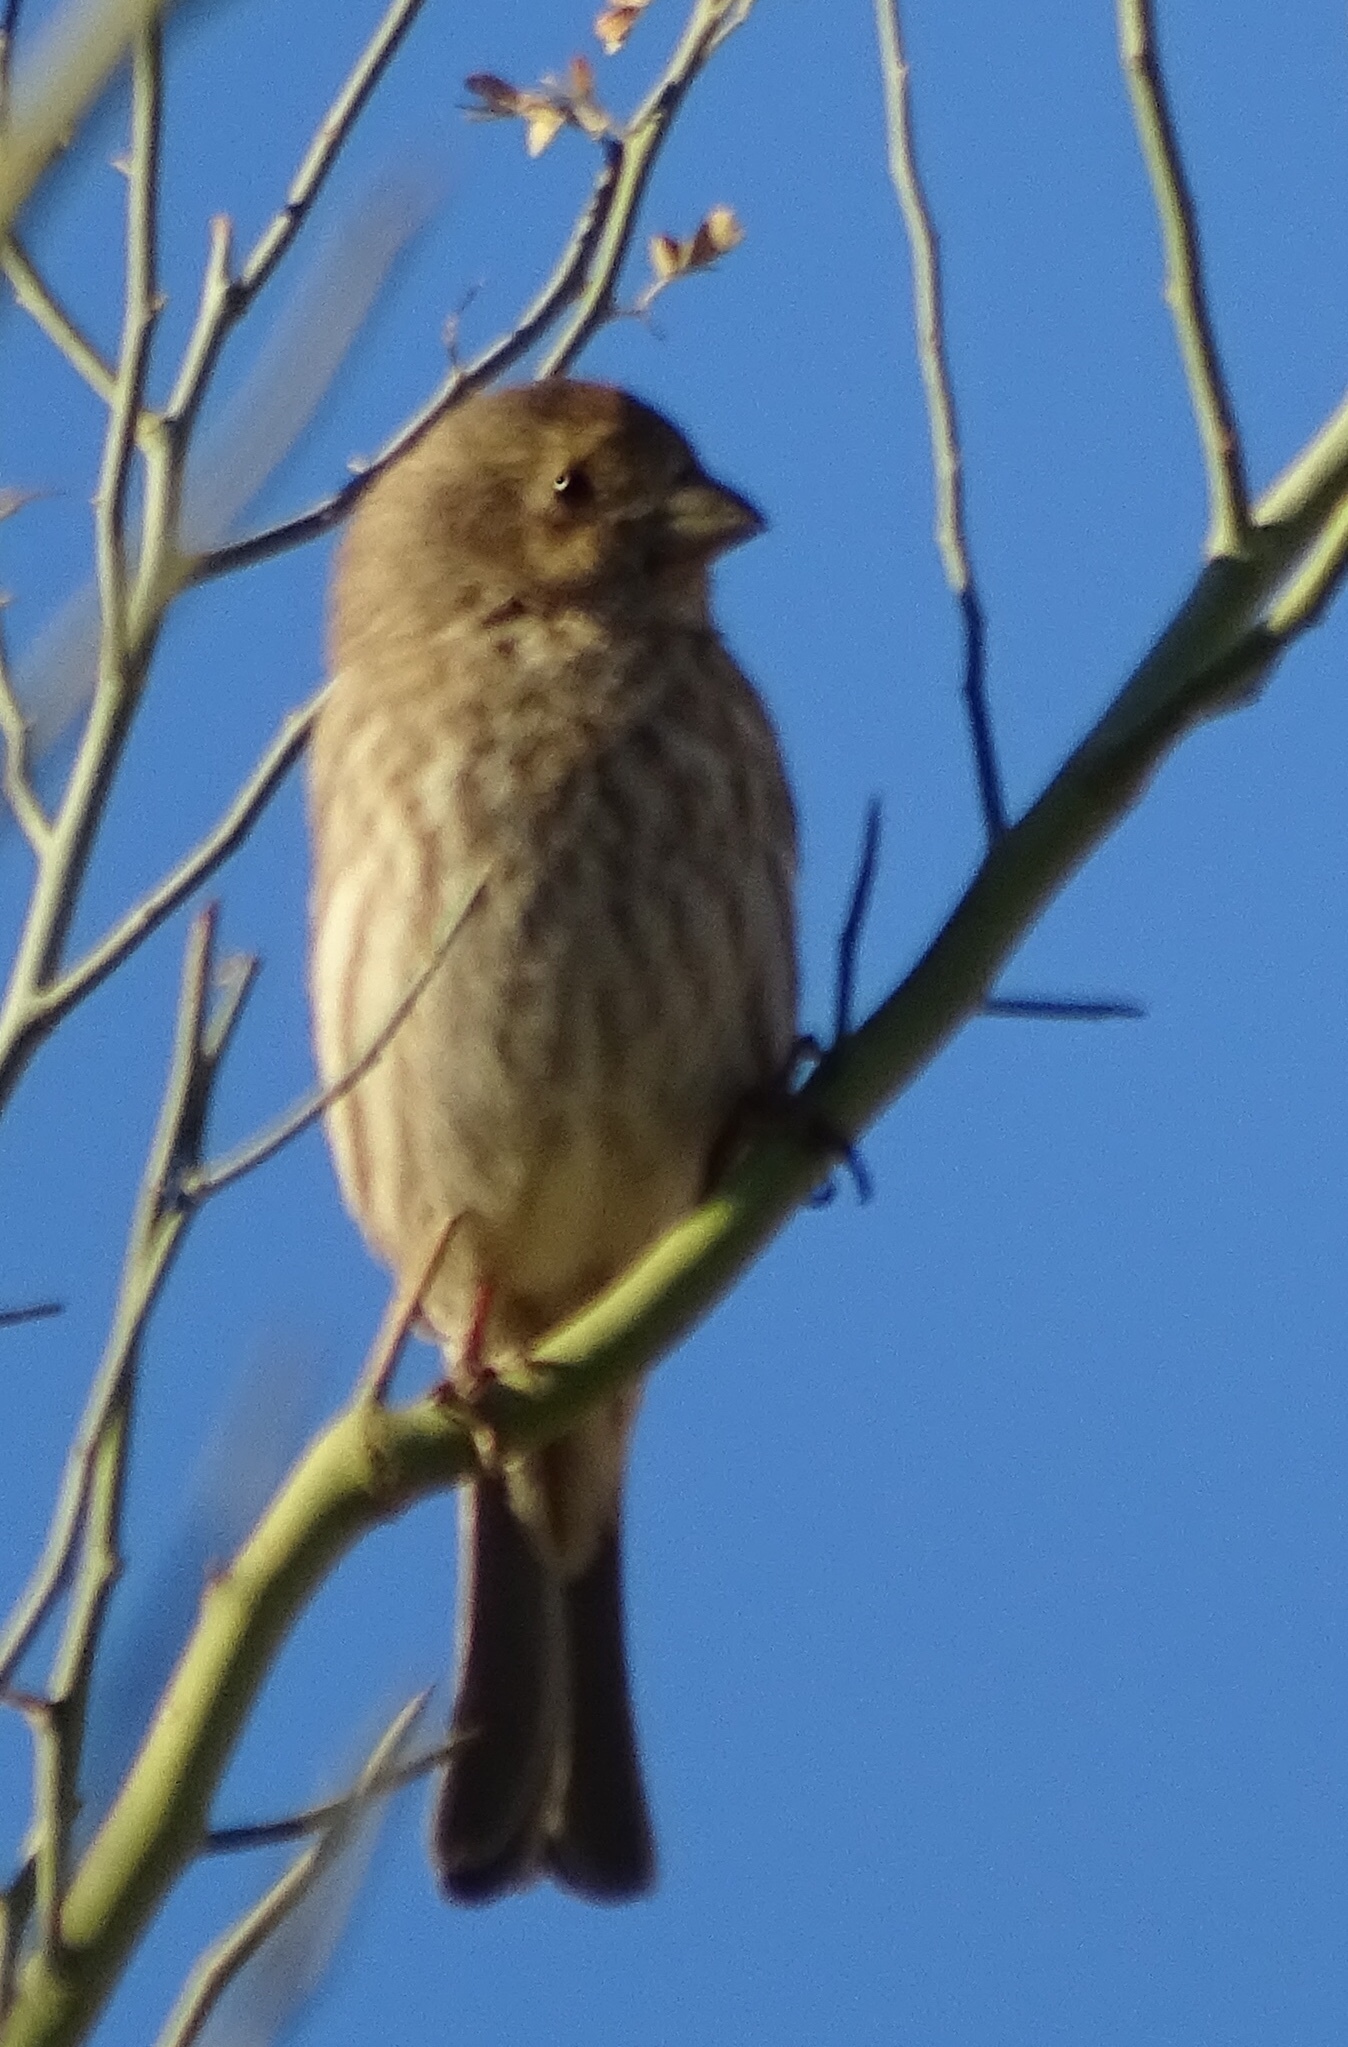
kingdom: Animalia
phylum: Chordata
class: Aves
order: Passeriformes
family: Fringillidae
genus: Haemorhous
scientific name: Haemorhous mexicanus
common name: House finch
